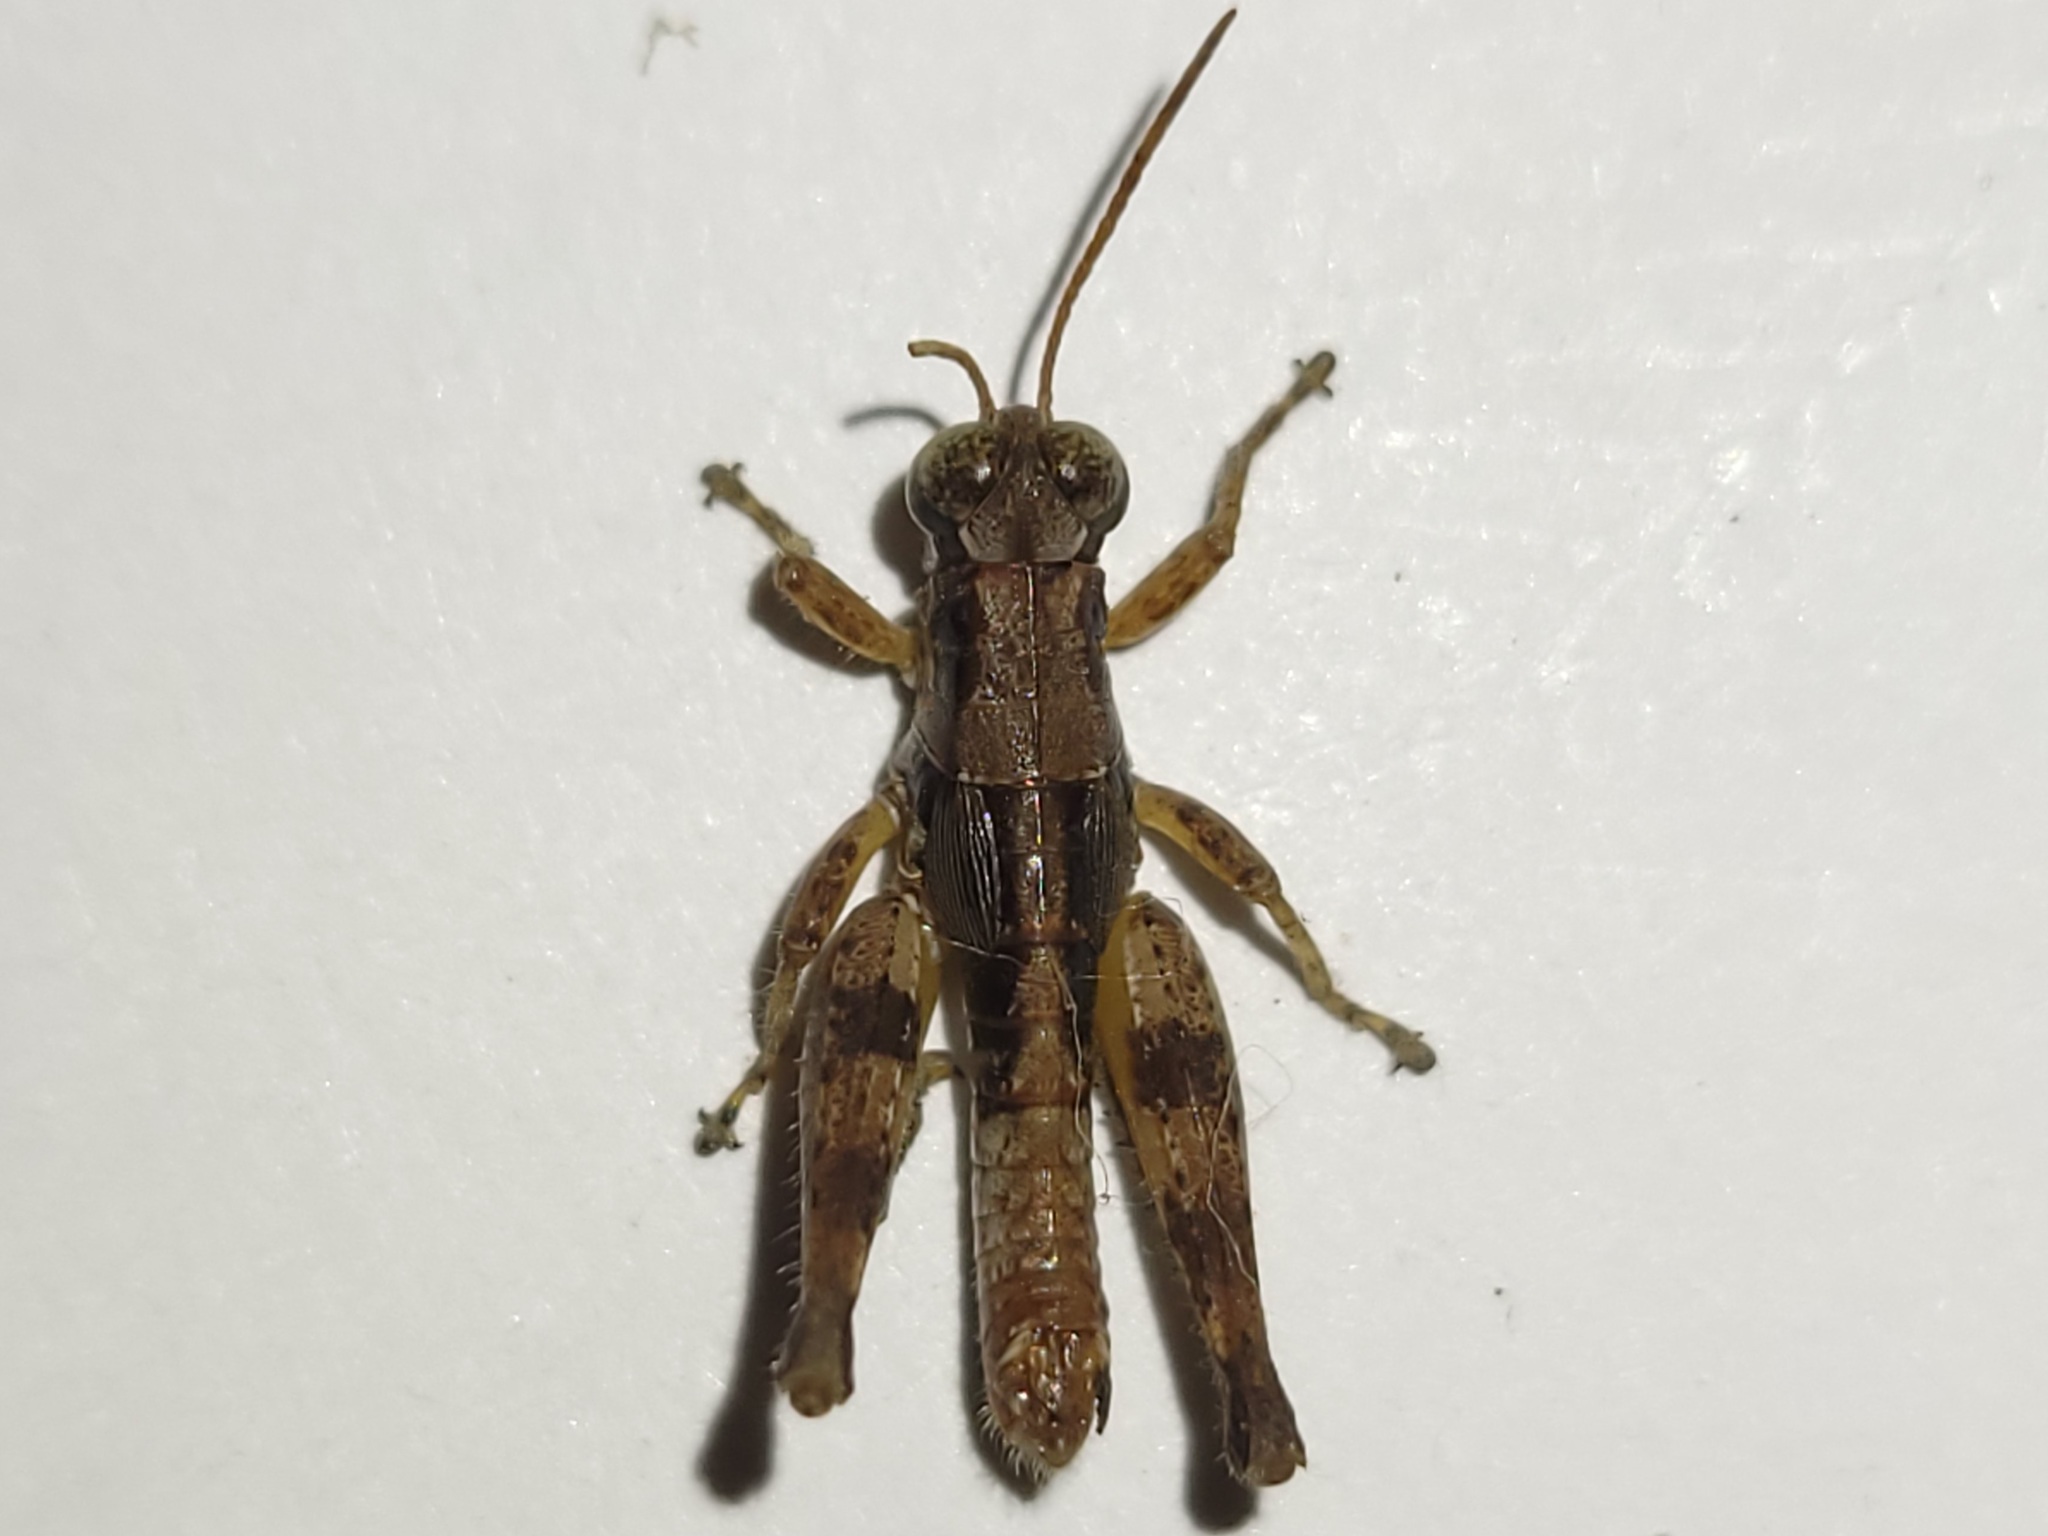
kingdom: Animalia
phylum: Arthropoda
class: Insecta
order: Orthoptera
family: Acrididae
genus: Melanoplus
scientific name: Melanoplus puer
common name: Least short-winged locust
